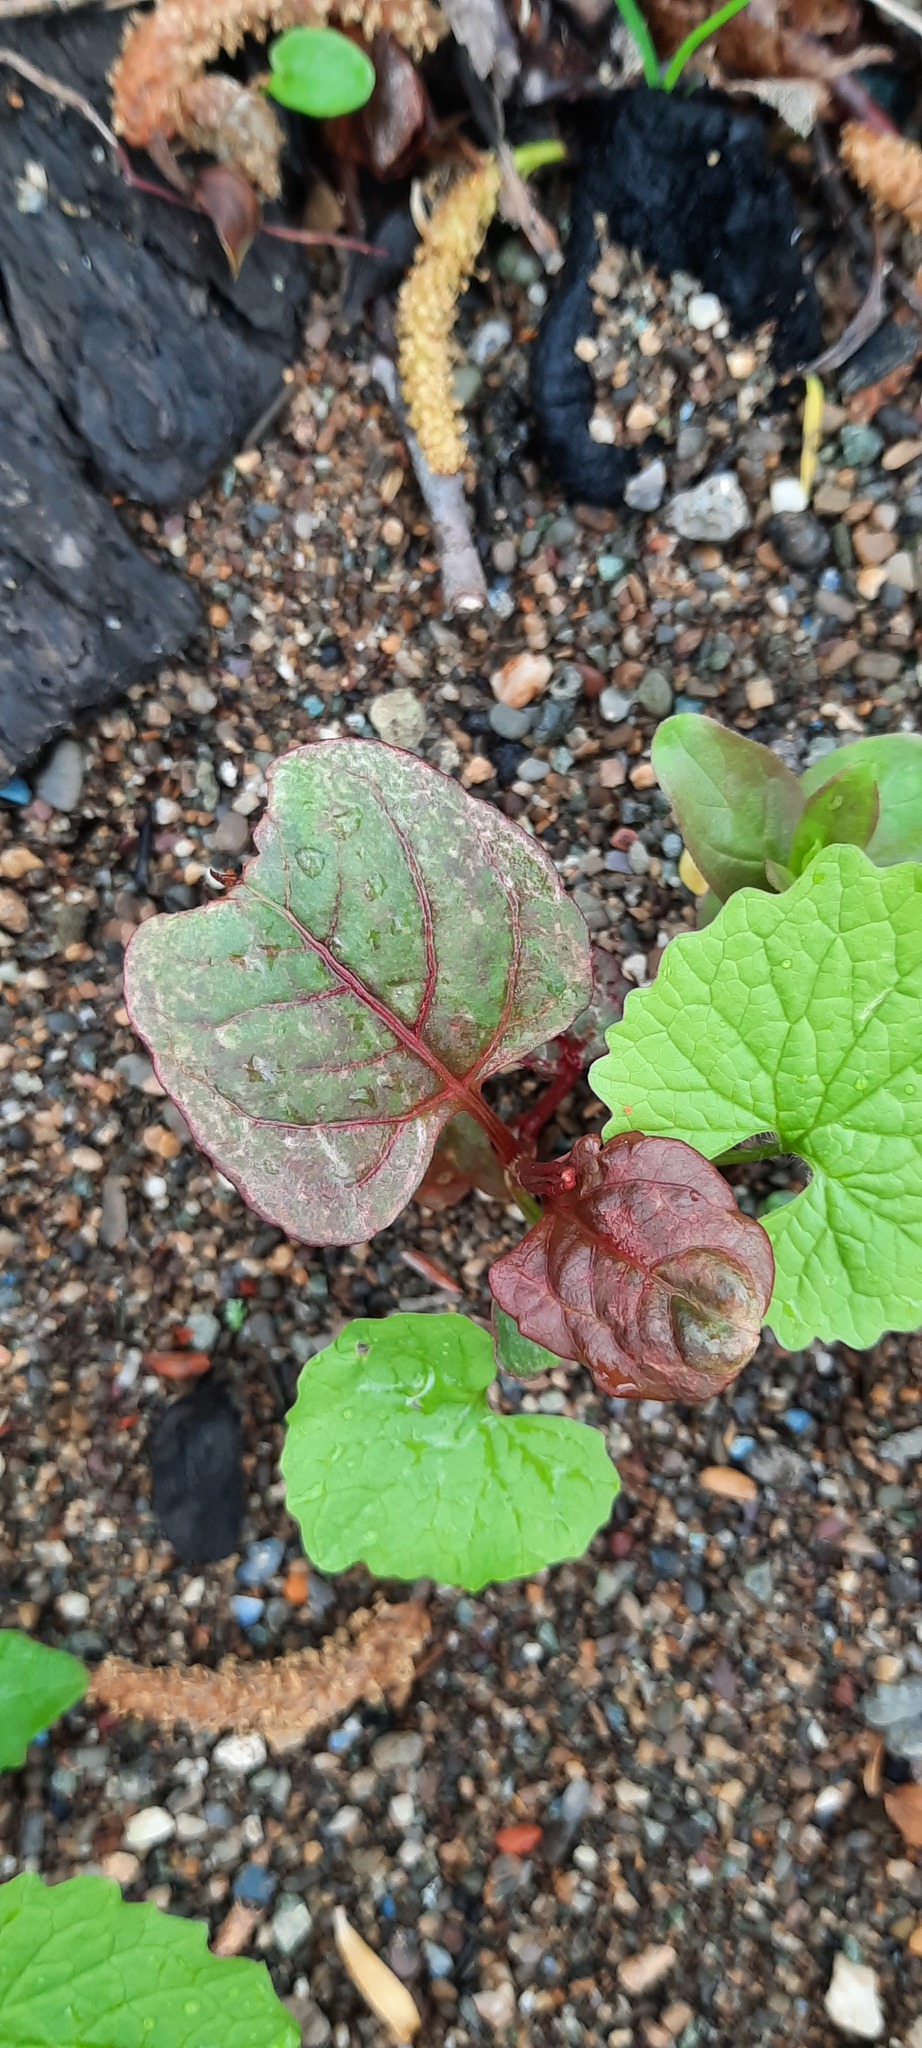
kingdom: Plantae
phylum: Tracheophyta
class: Magnoliopsida
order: Caryophyllales
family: Polygonaceae
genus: Reynoutria
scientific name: Reynoutria japonica
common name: Japanese knotweed
